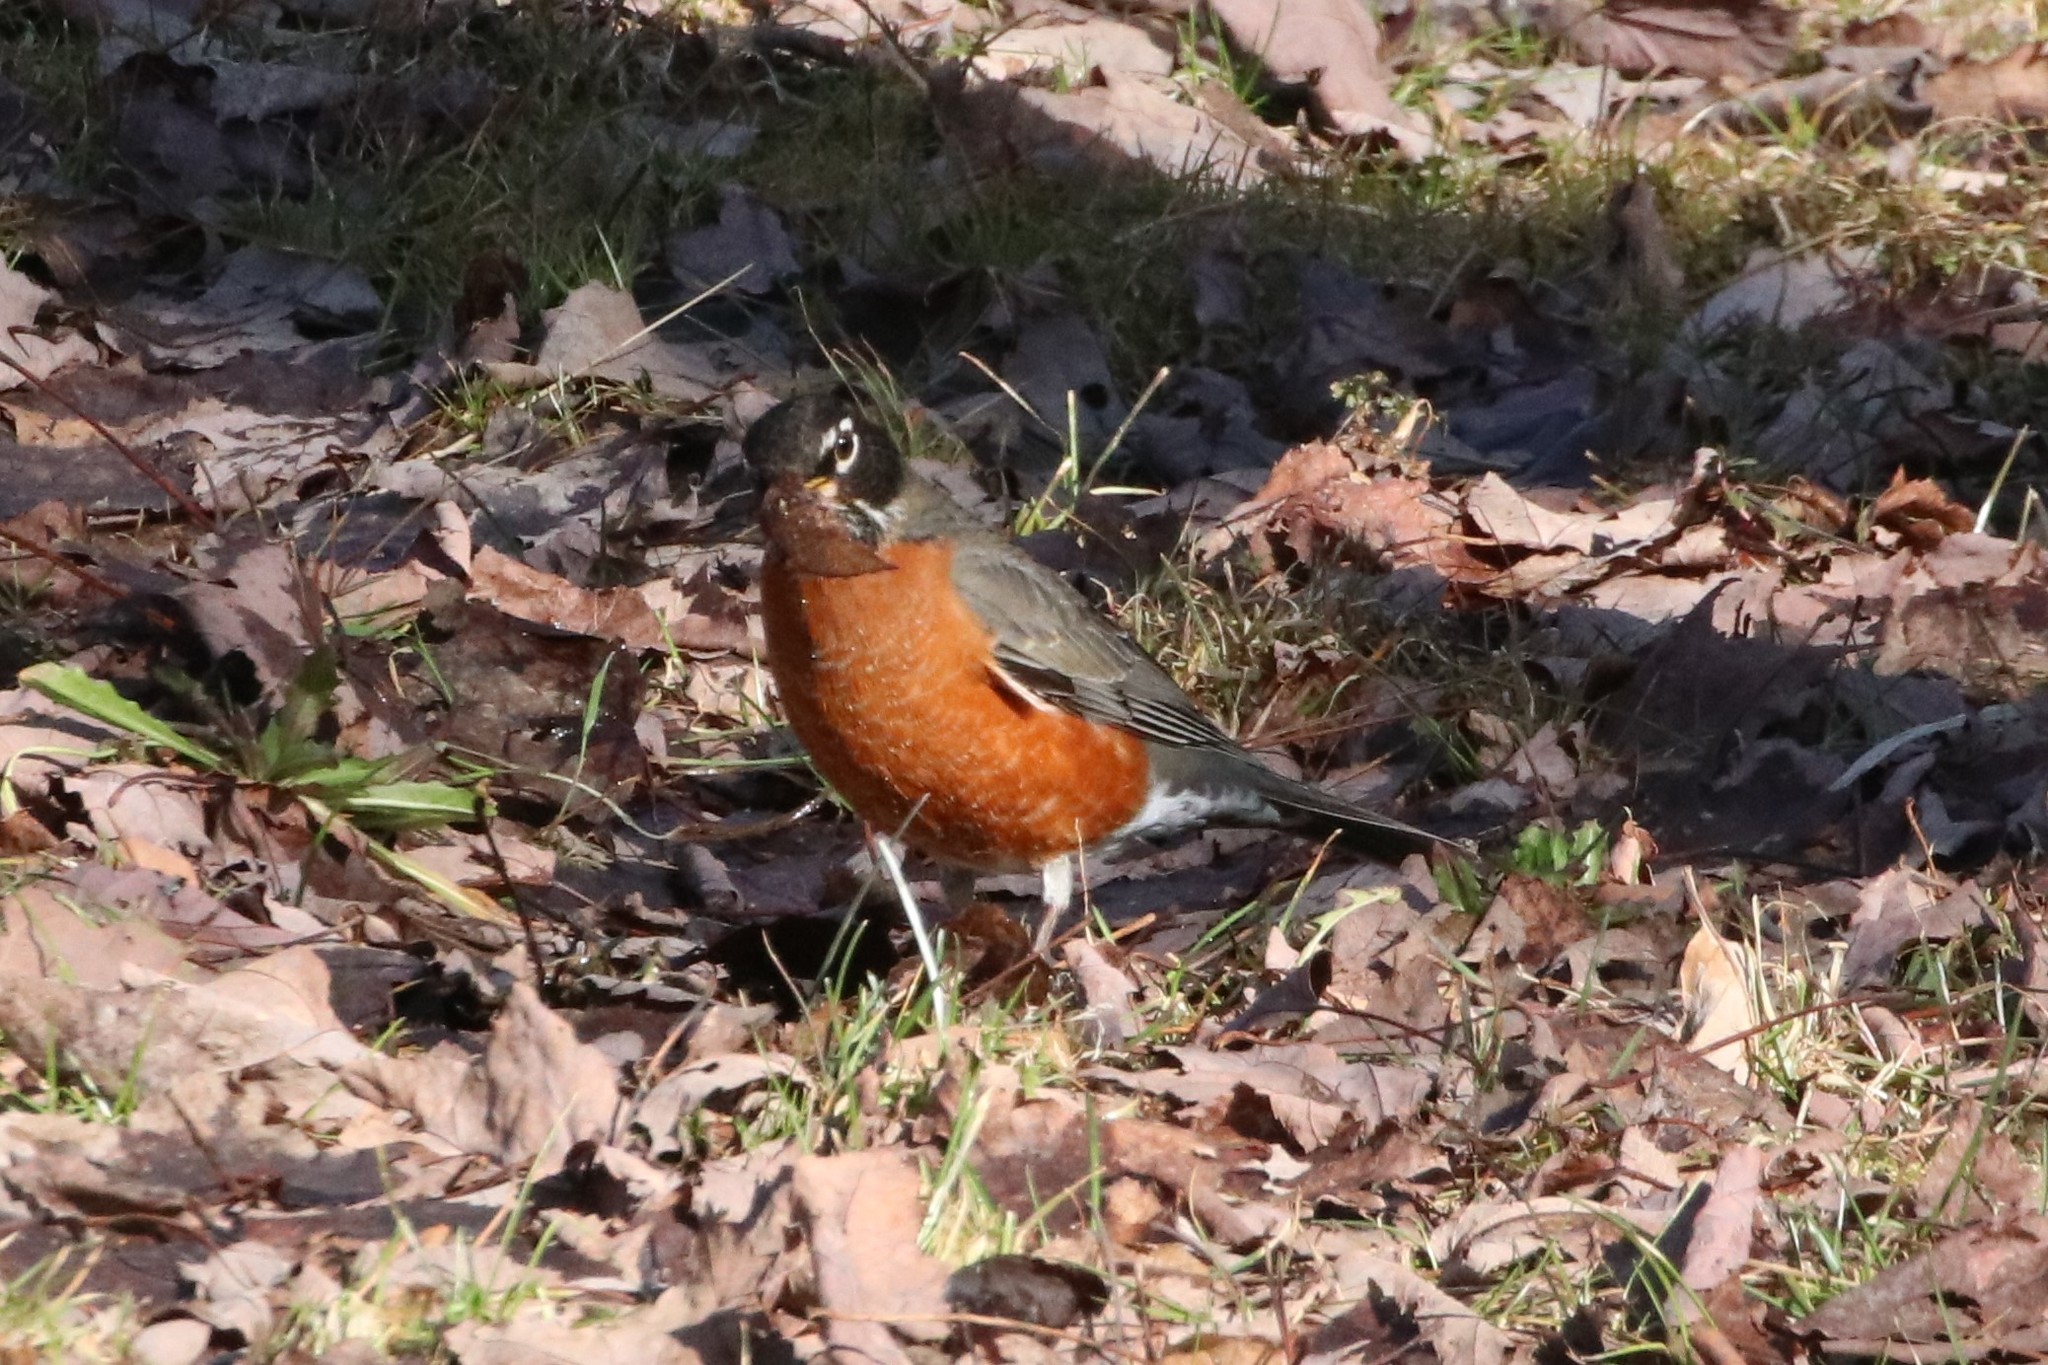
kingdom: Animalia
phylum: Chordata
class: Aves
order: Passeriformes
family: Turdidae
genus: Turdus
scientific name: Turdus migratorius
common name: American robin
